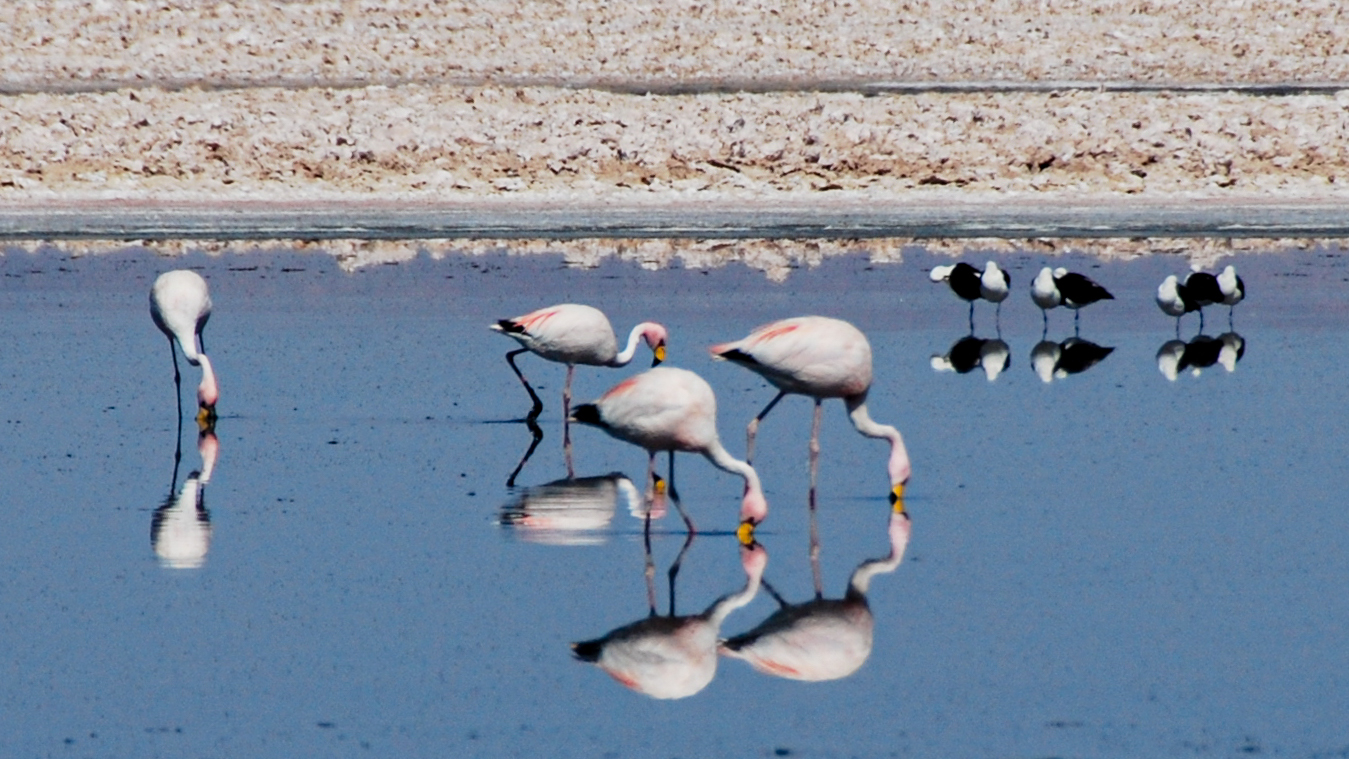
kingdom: Animalia
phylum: Chordata
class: Aves
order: Phoenicopteriformes
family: Phoenicopteridae
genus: Phoenicoparrus
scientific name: Phoenicoparrus jamesi
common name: James's flamingo
